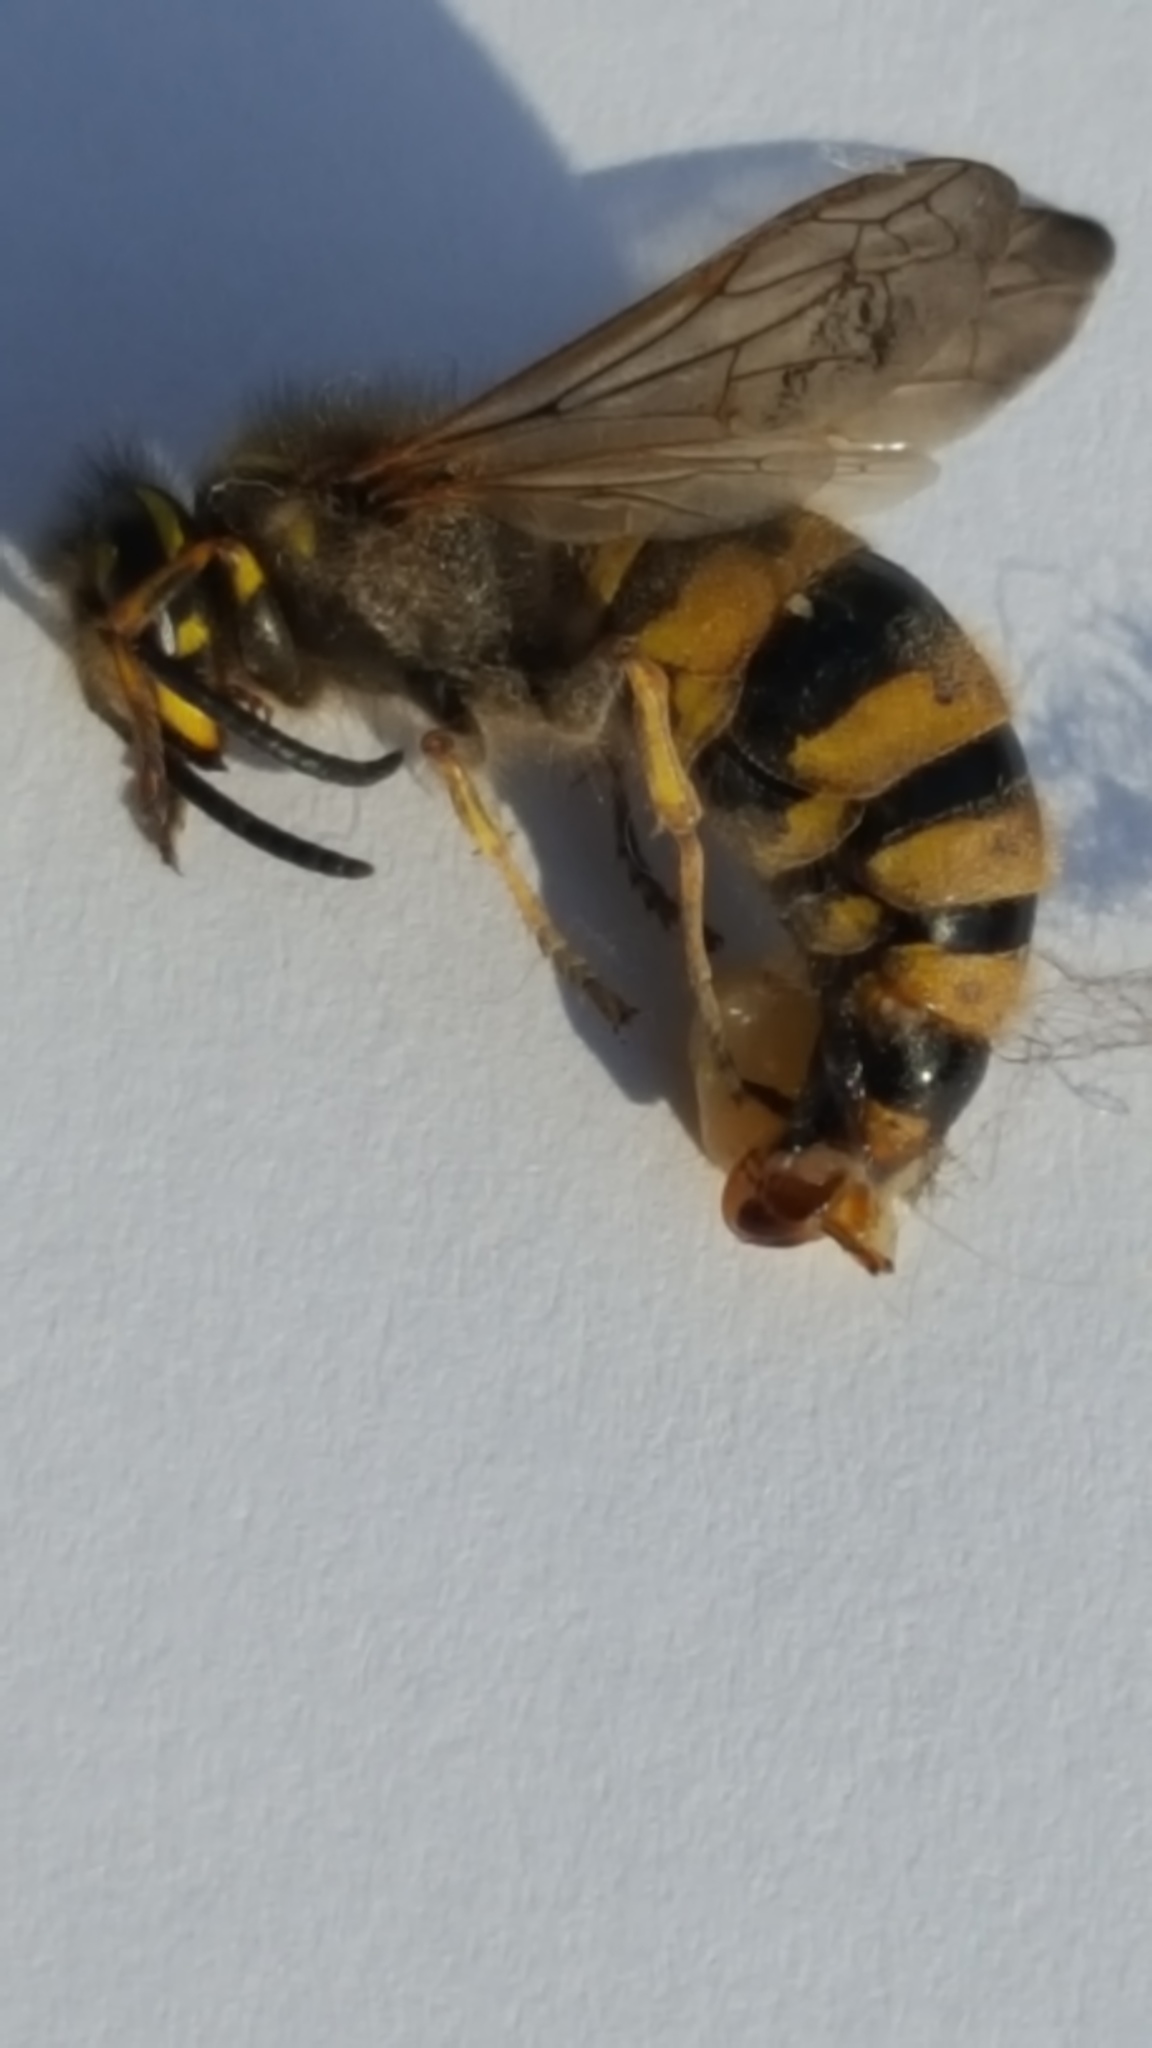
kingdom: Animalia
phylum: Arthropoda
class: Insecta
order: Hymenoptera
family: Vespidae
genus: Vespula
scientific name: Vespula vulgaris
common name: Common wasp
